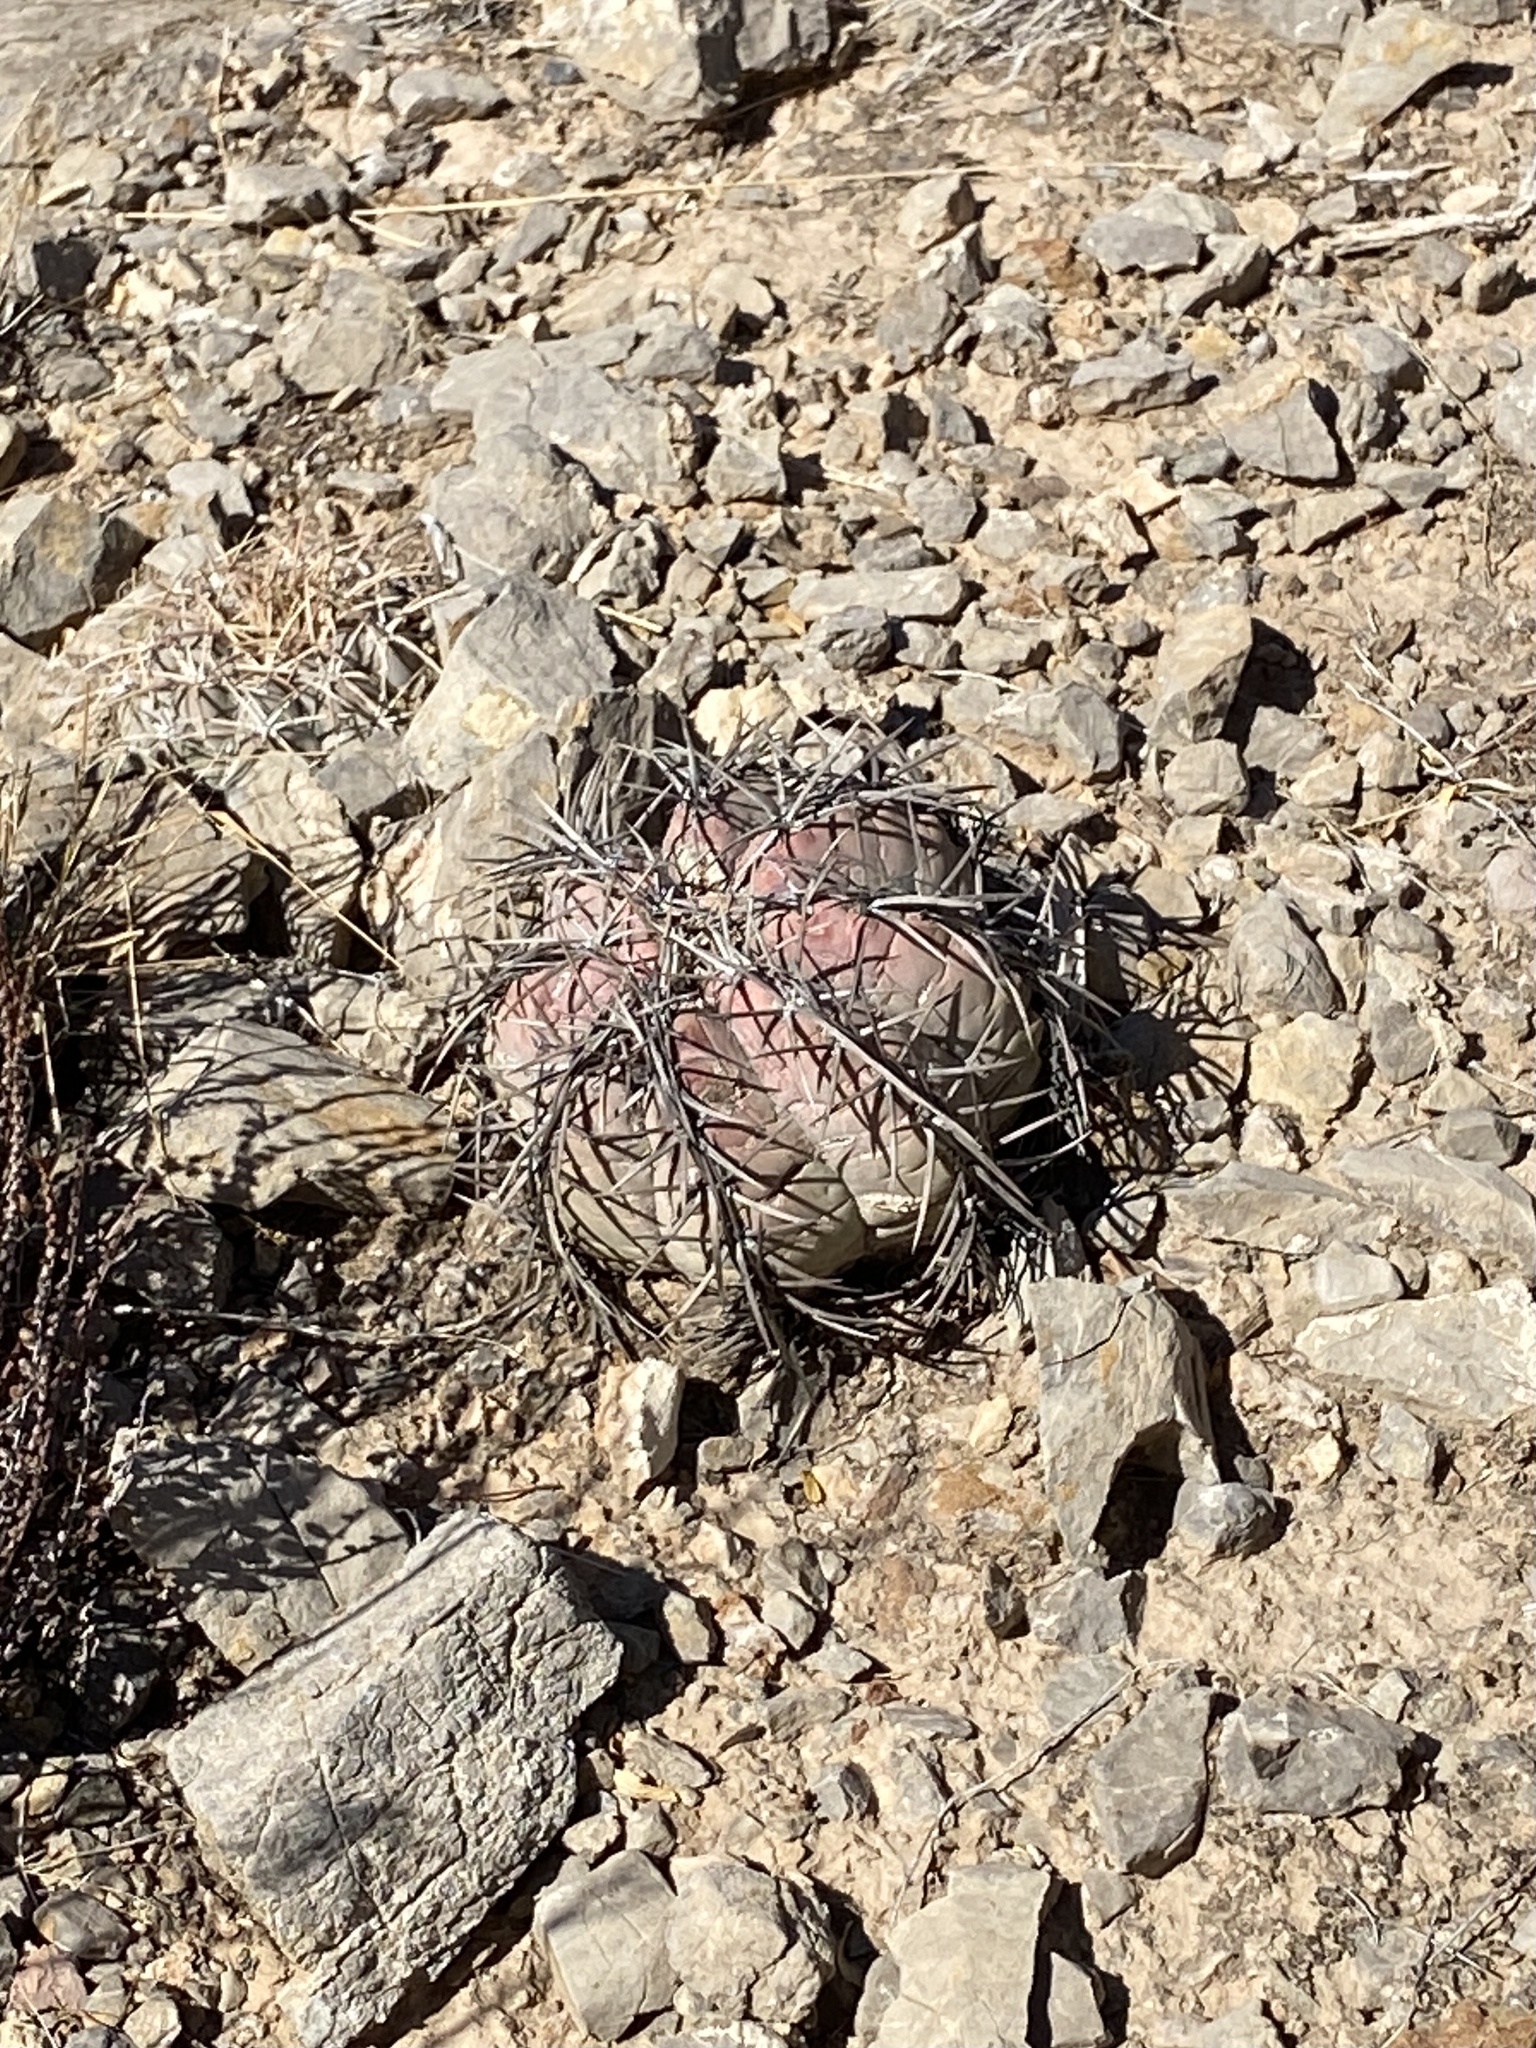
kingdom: Plantae
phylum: Tracheophyta
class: Magnoliopsida
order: Caryophyllales
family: Cactaceae
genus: Echinocactus
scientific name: Echinocactus horizonthalonius
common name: Devilshead
